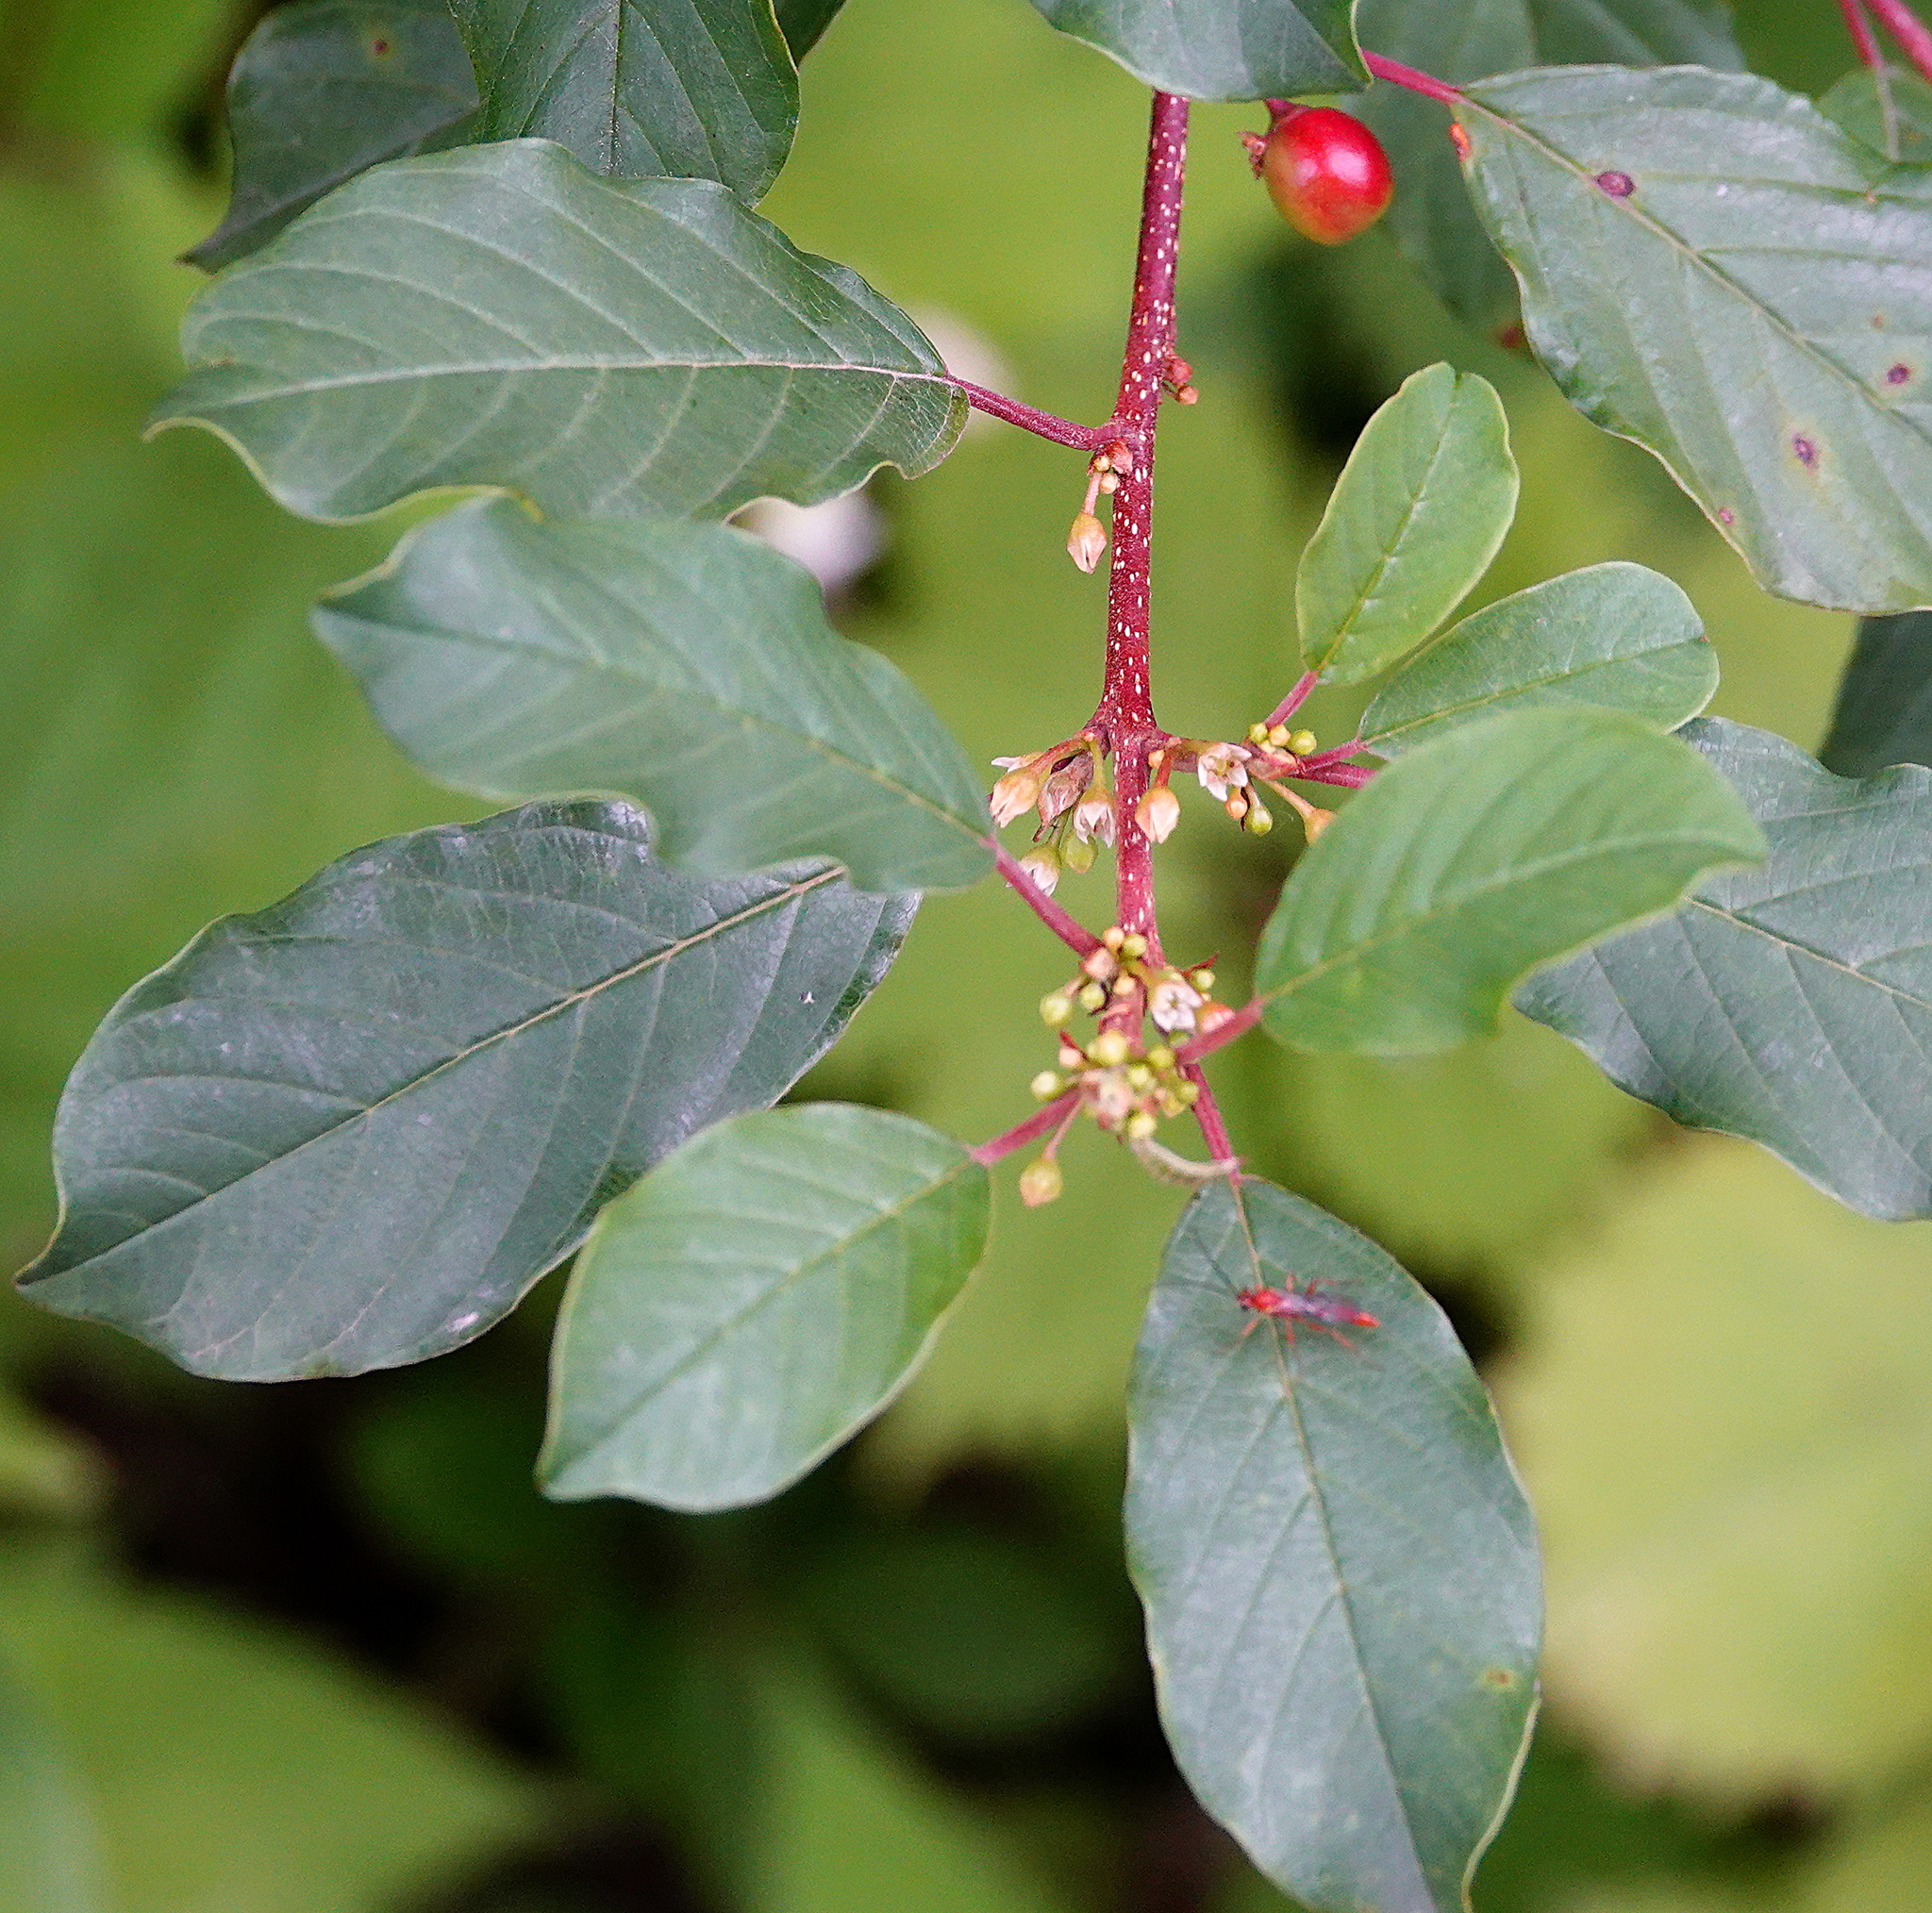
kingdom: Plantae
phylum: Tracheophyta
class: Magnoliopsida
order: Rosales
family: Rhamnaceae
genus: Frangula
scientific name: Frangula alnus
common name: Alder buckthorn
